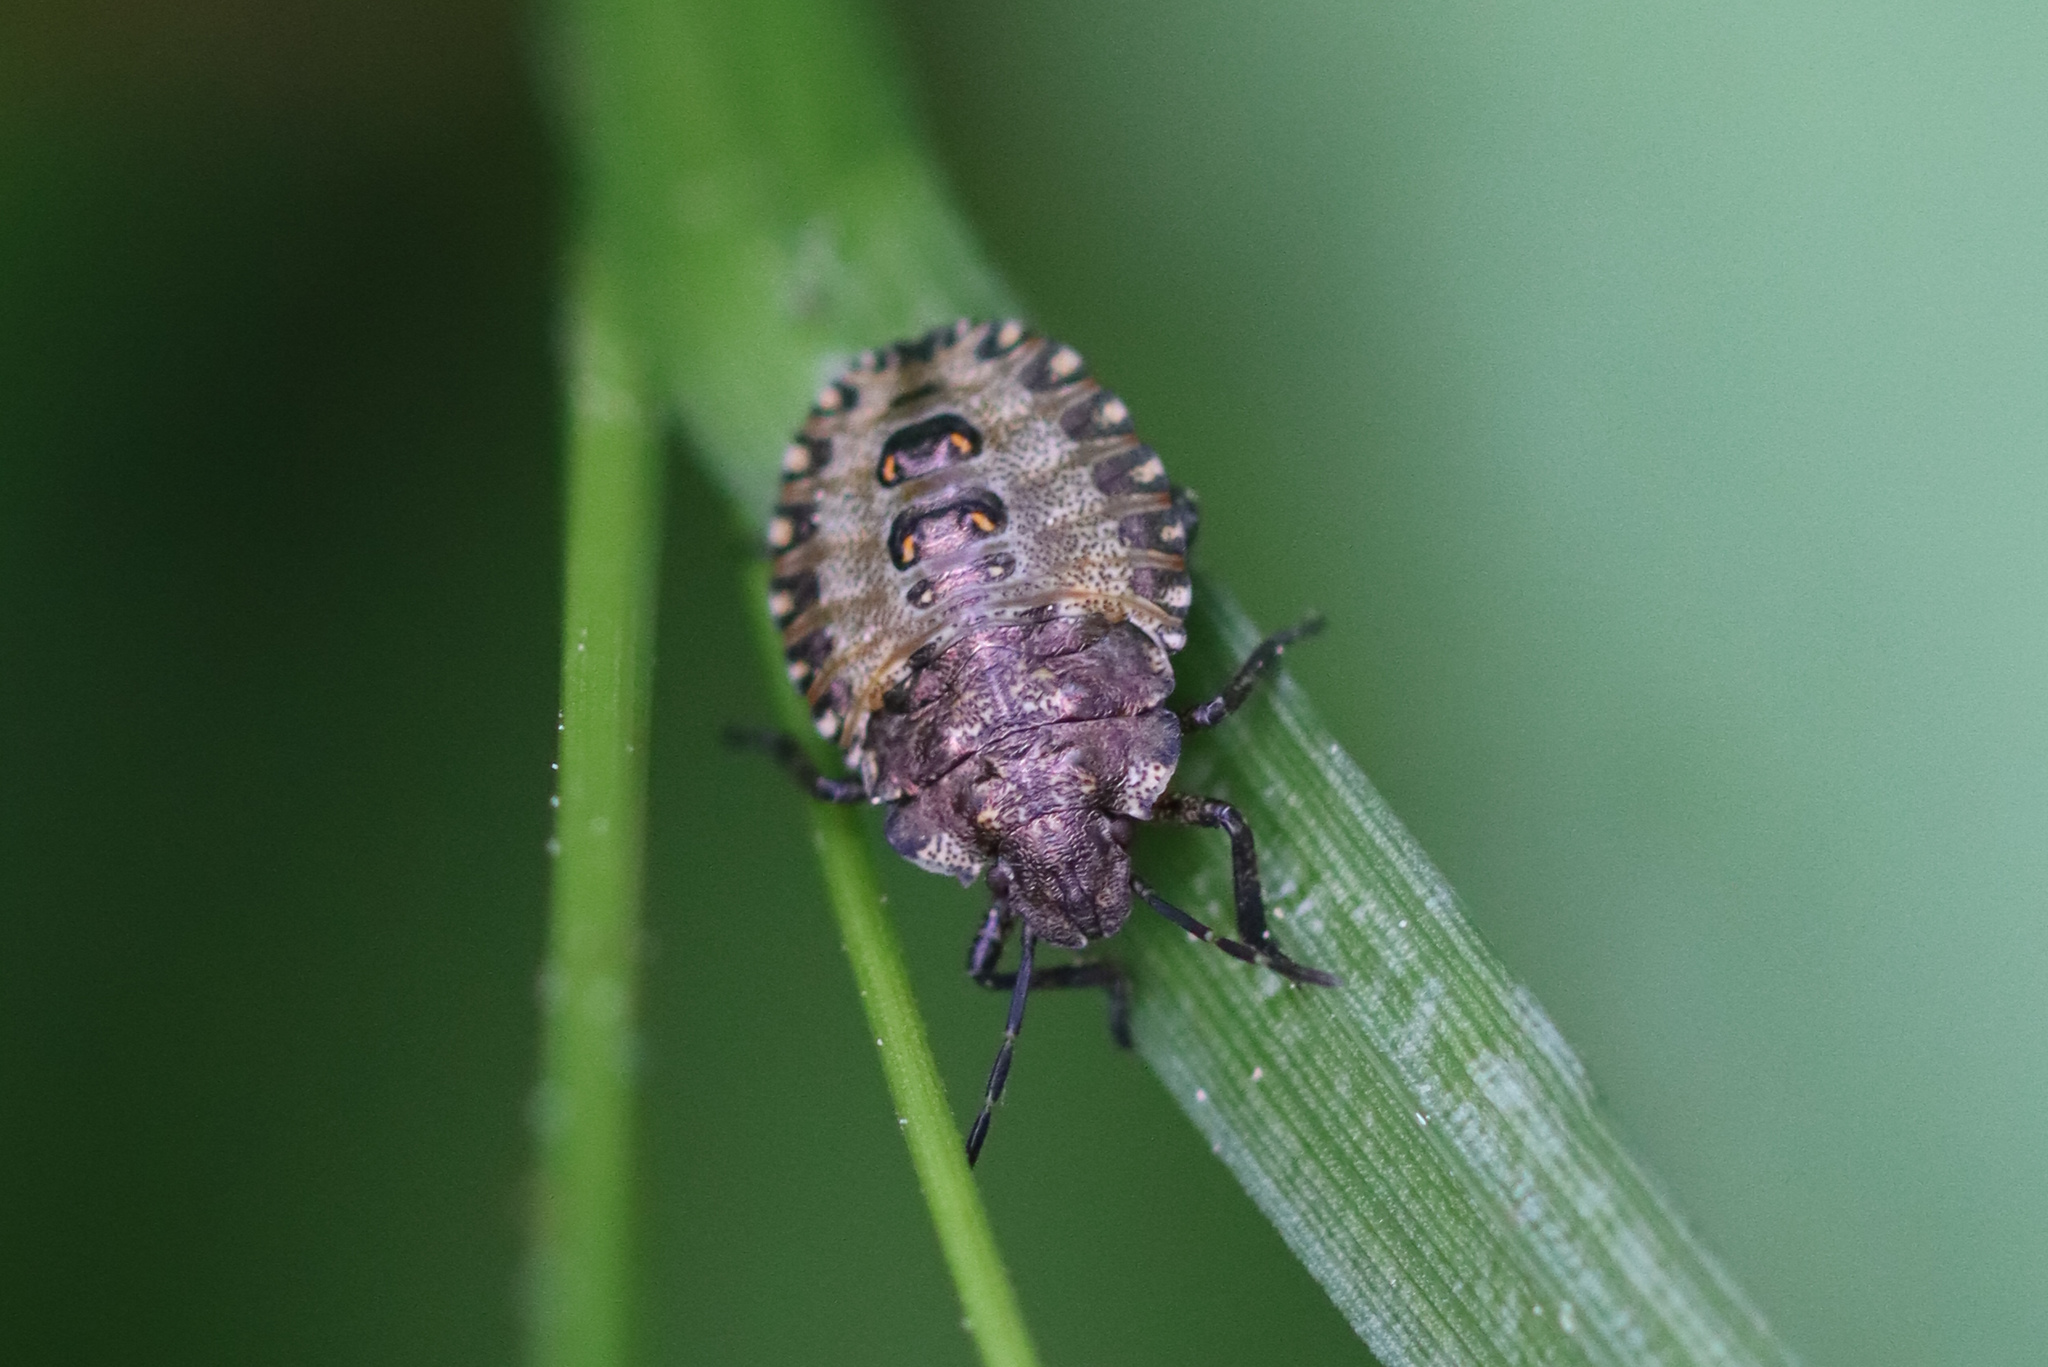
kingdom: Animalia
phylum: Arthropoda
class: Insecta
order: Hemiptera
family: Pentatomidae
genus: Pentatoma
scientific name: Pentatoma rufipes
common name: Forest bug
